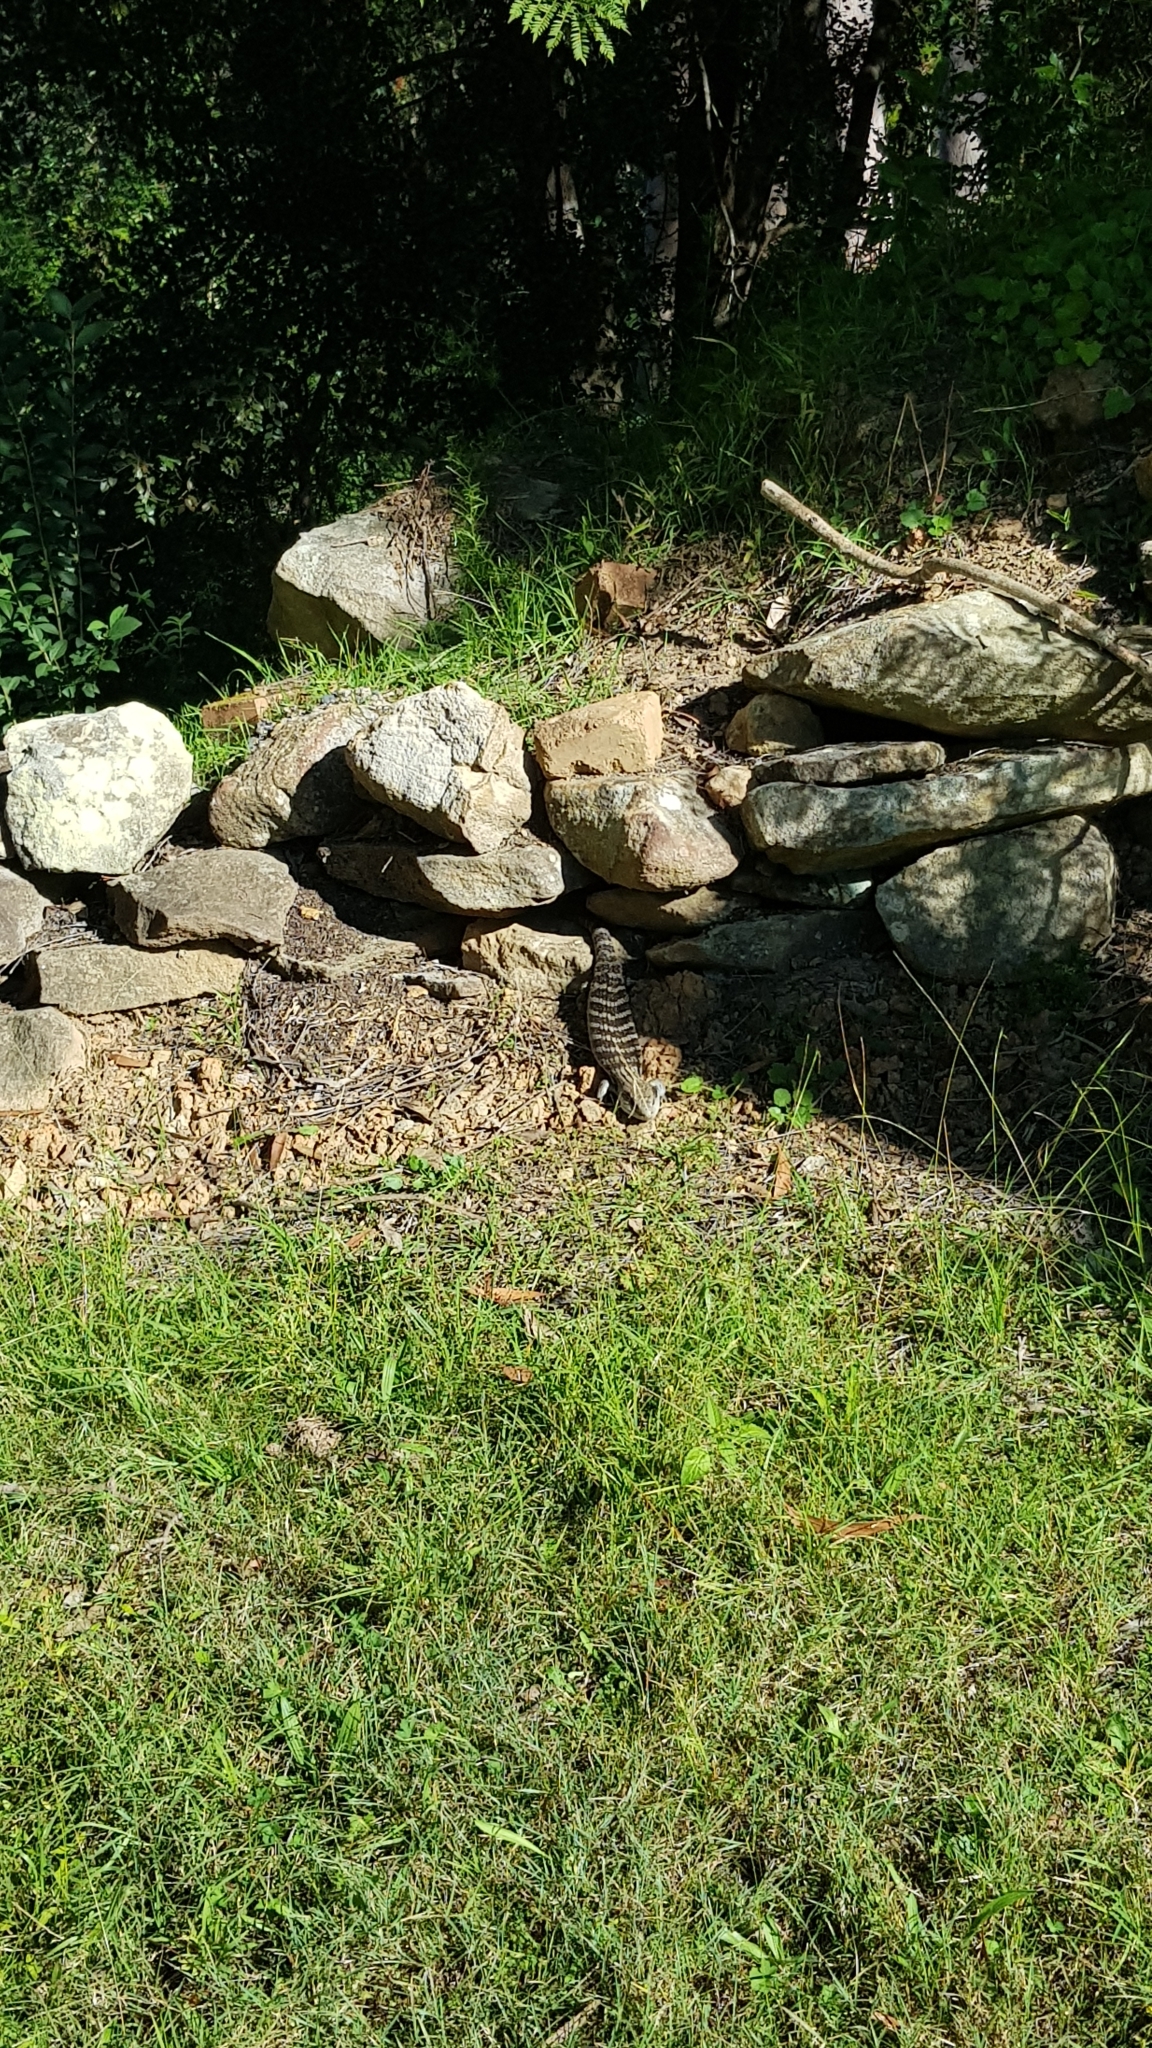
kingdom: Animalia
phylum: Chordata
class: Squamata
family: Scincidae
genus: Tiliqua
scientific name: Tiliqua scincoides
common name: Common bluetongue
